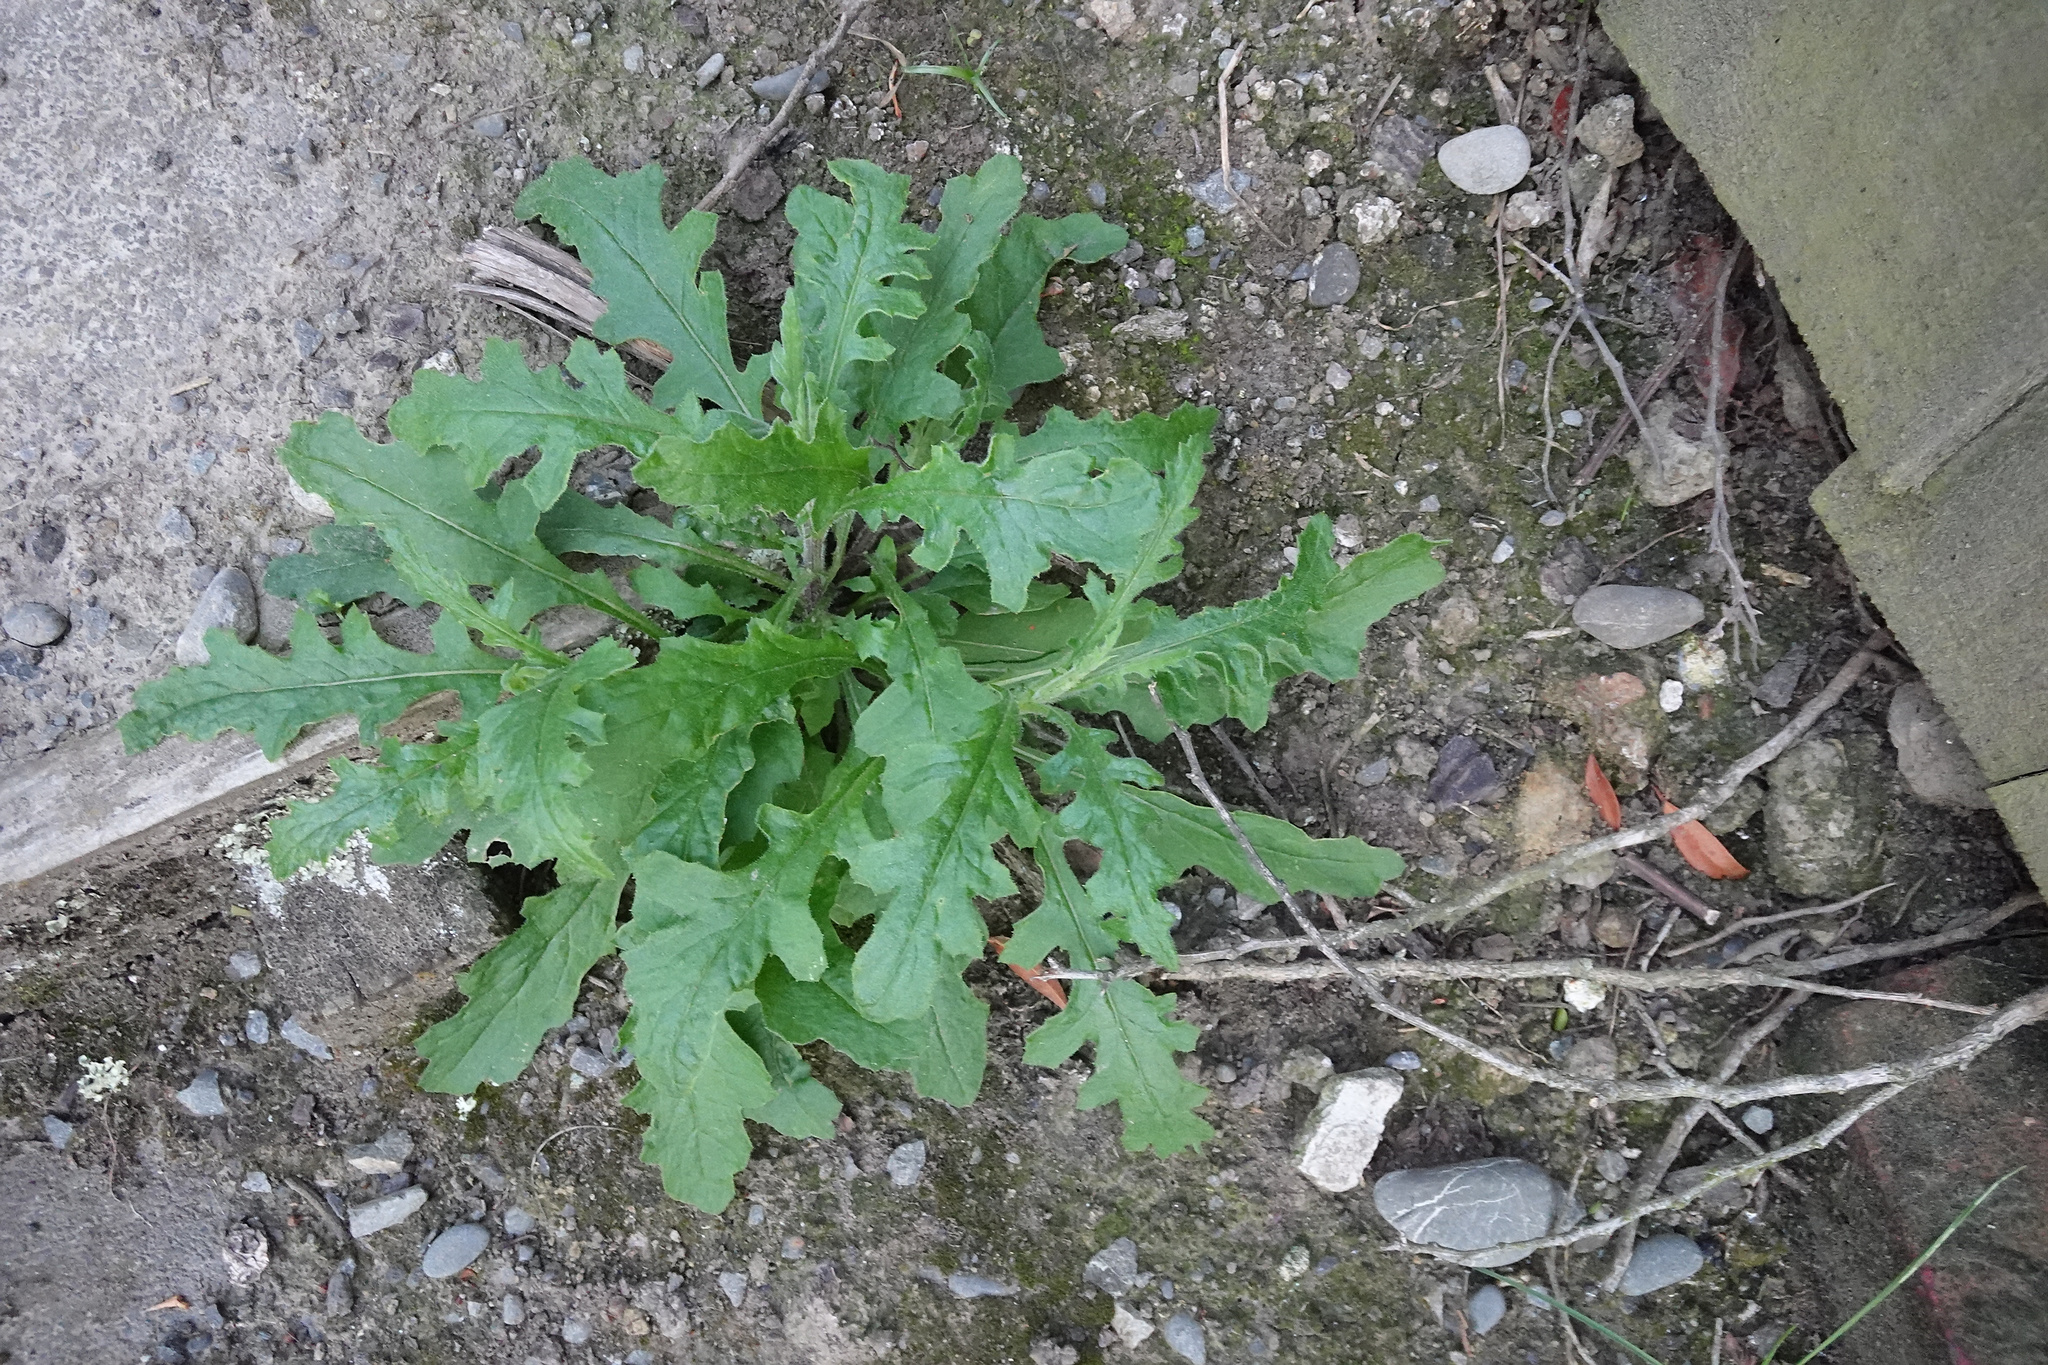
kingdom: Plantae
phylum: Tracheophyta
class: Magnoliopsida
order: Asterales
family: Asteraceae
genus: Senecio
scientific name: Senecio hispidulus
